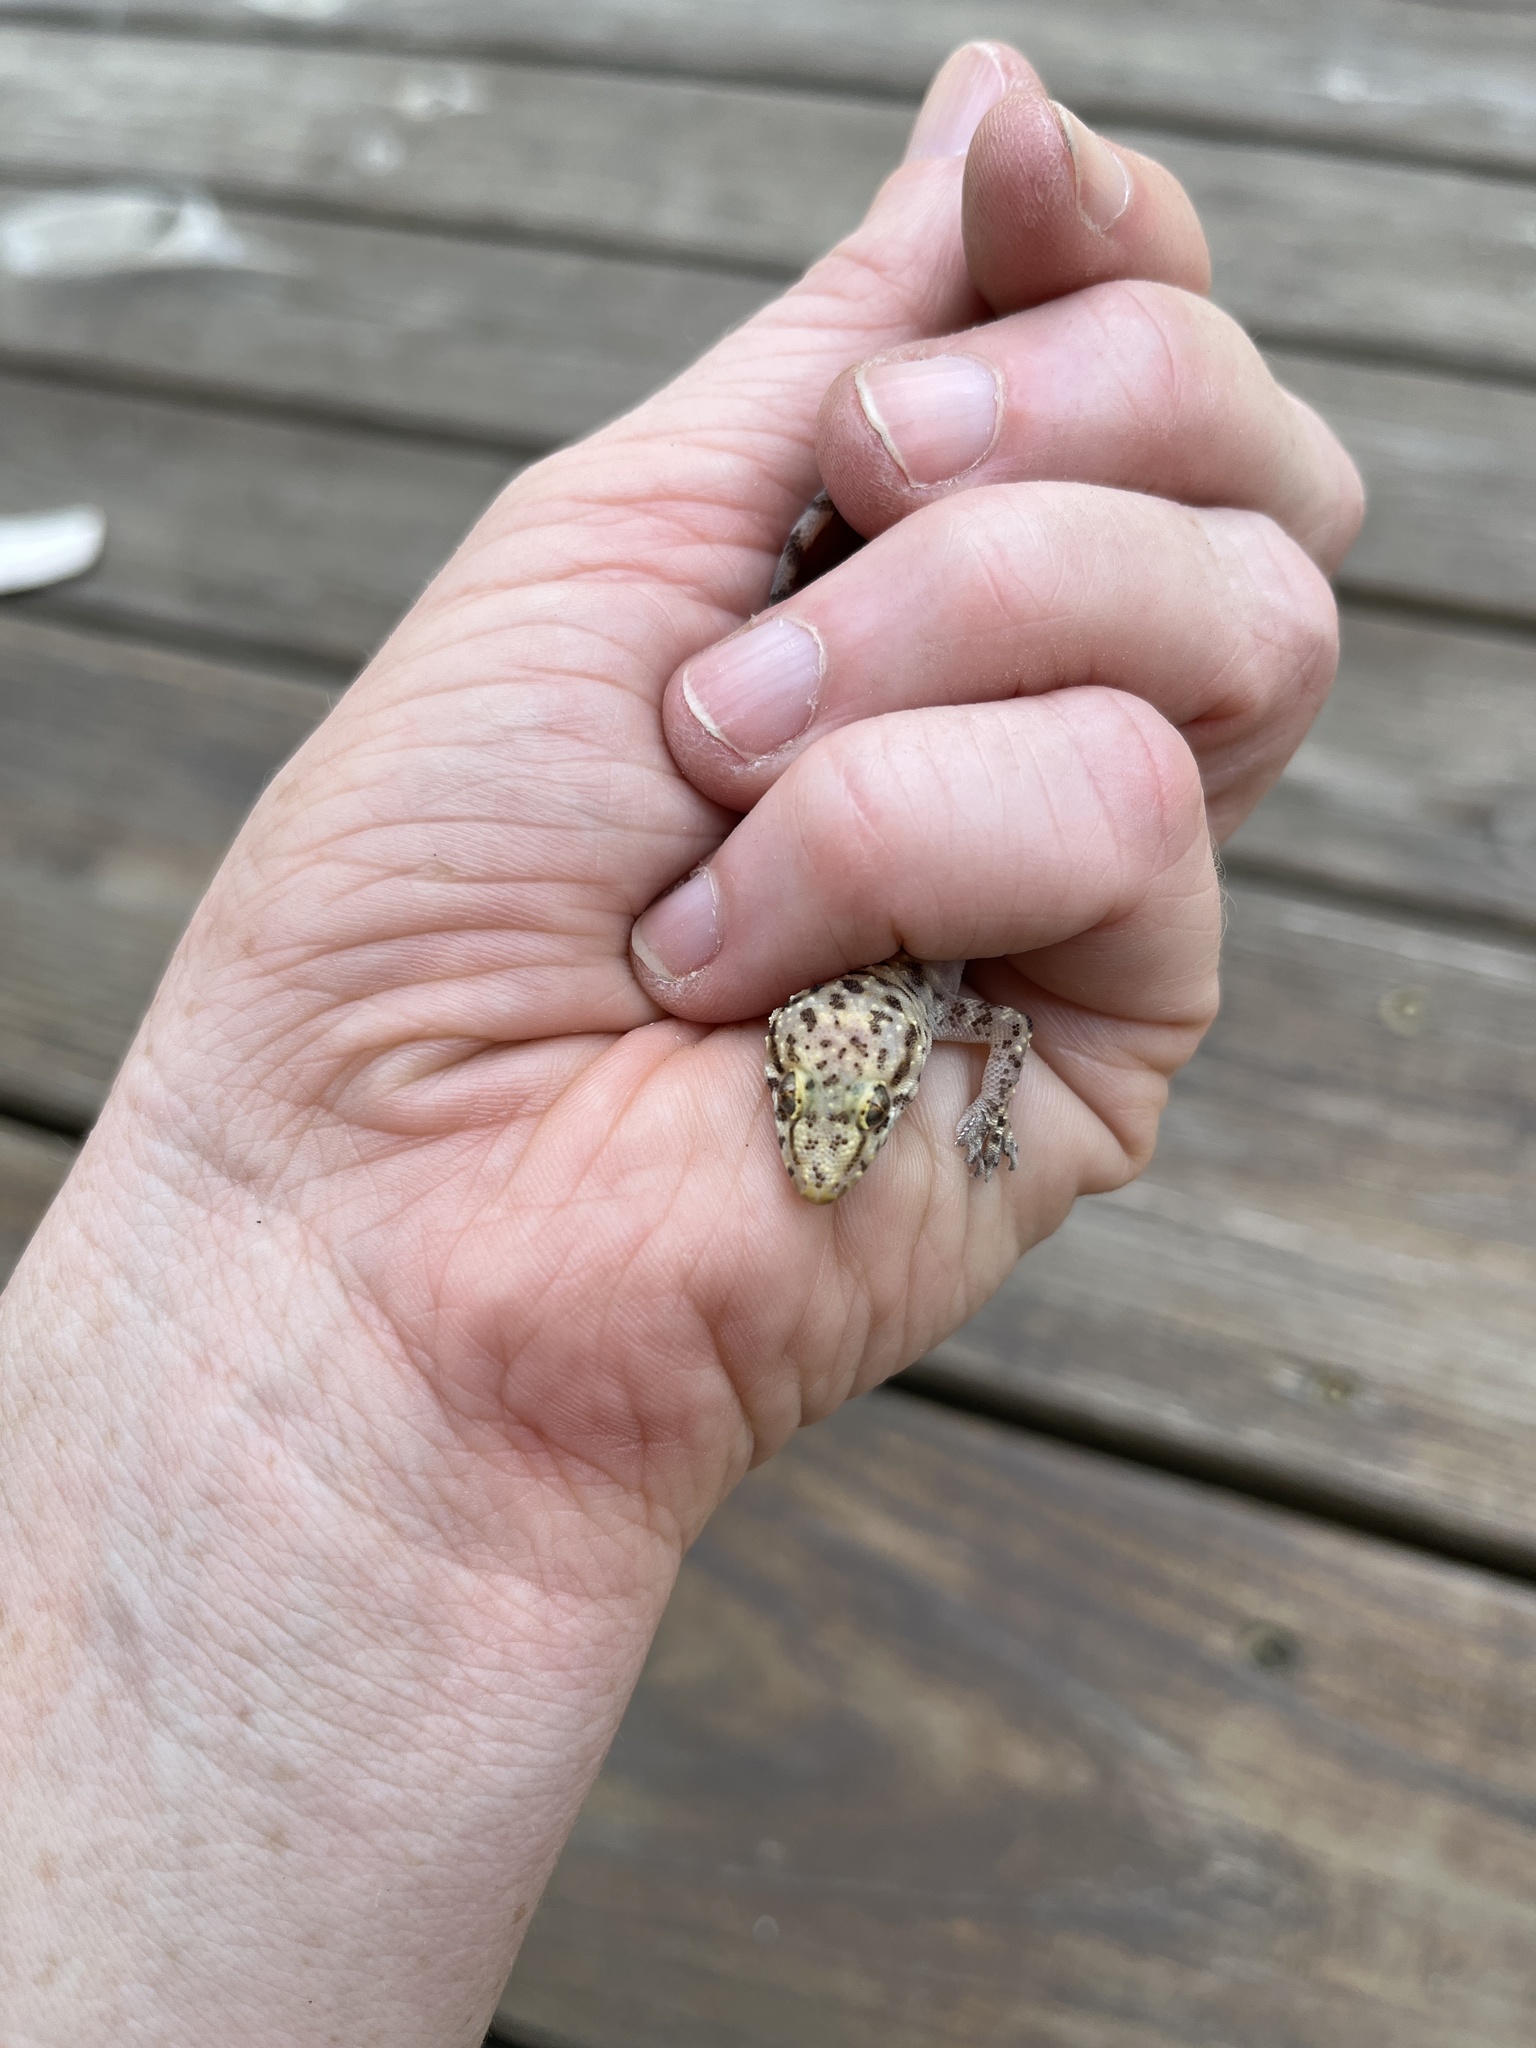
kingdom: Animalia
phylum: Chordata
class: Squamata
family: Gekkonidae
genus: Hemidactylus
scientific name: Hemidactylus turcicus
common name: Turkish gecko
